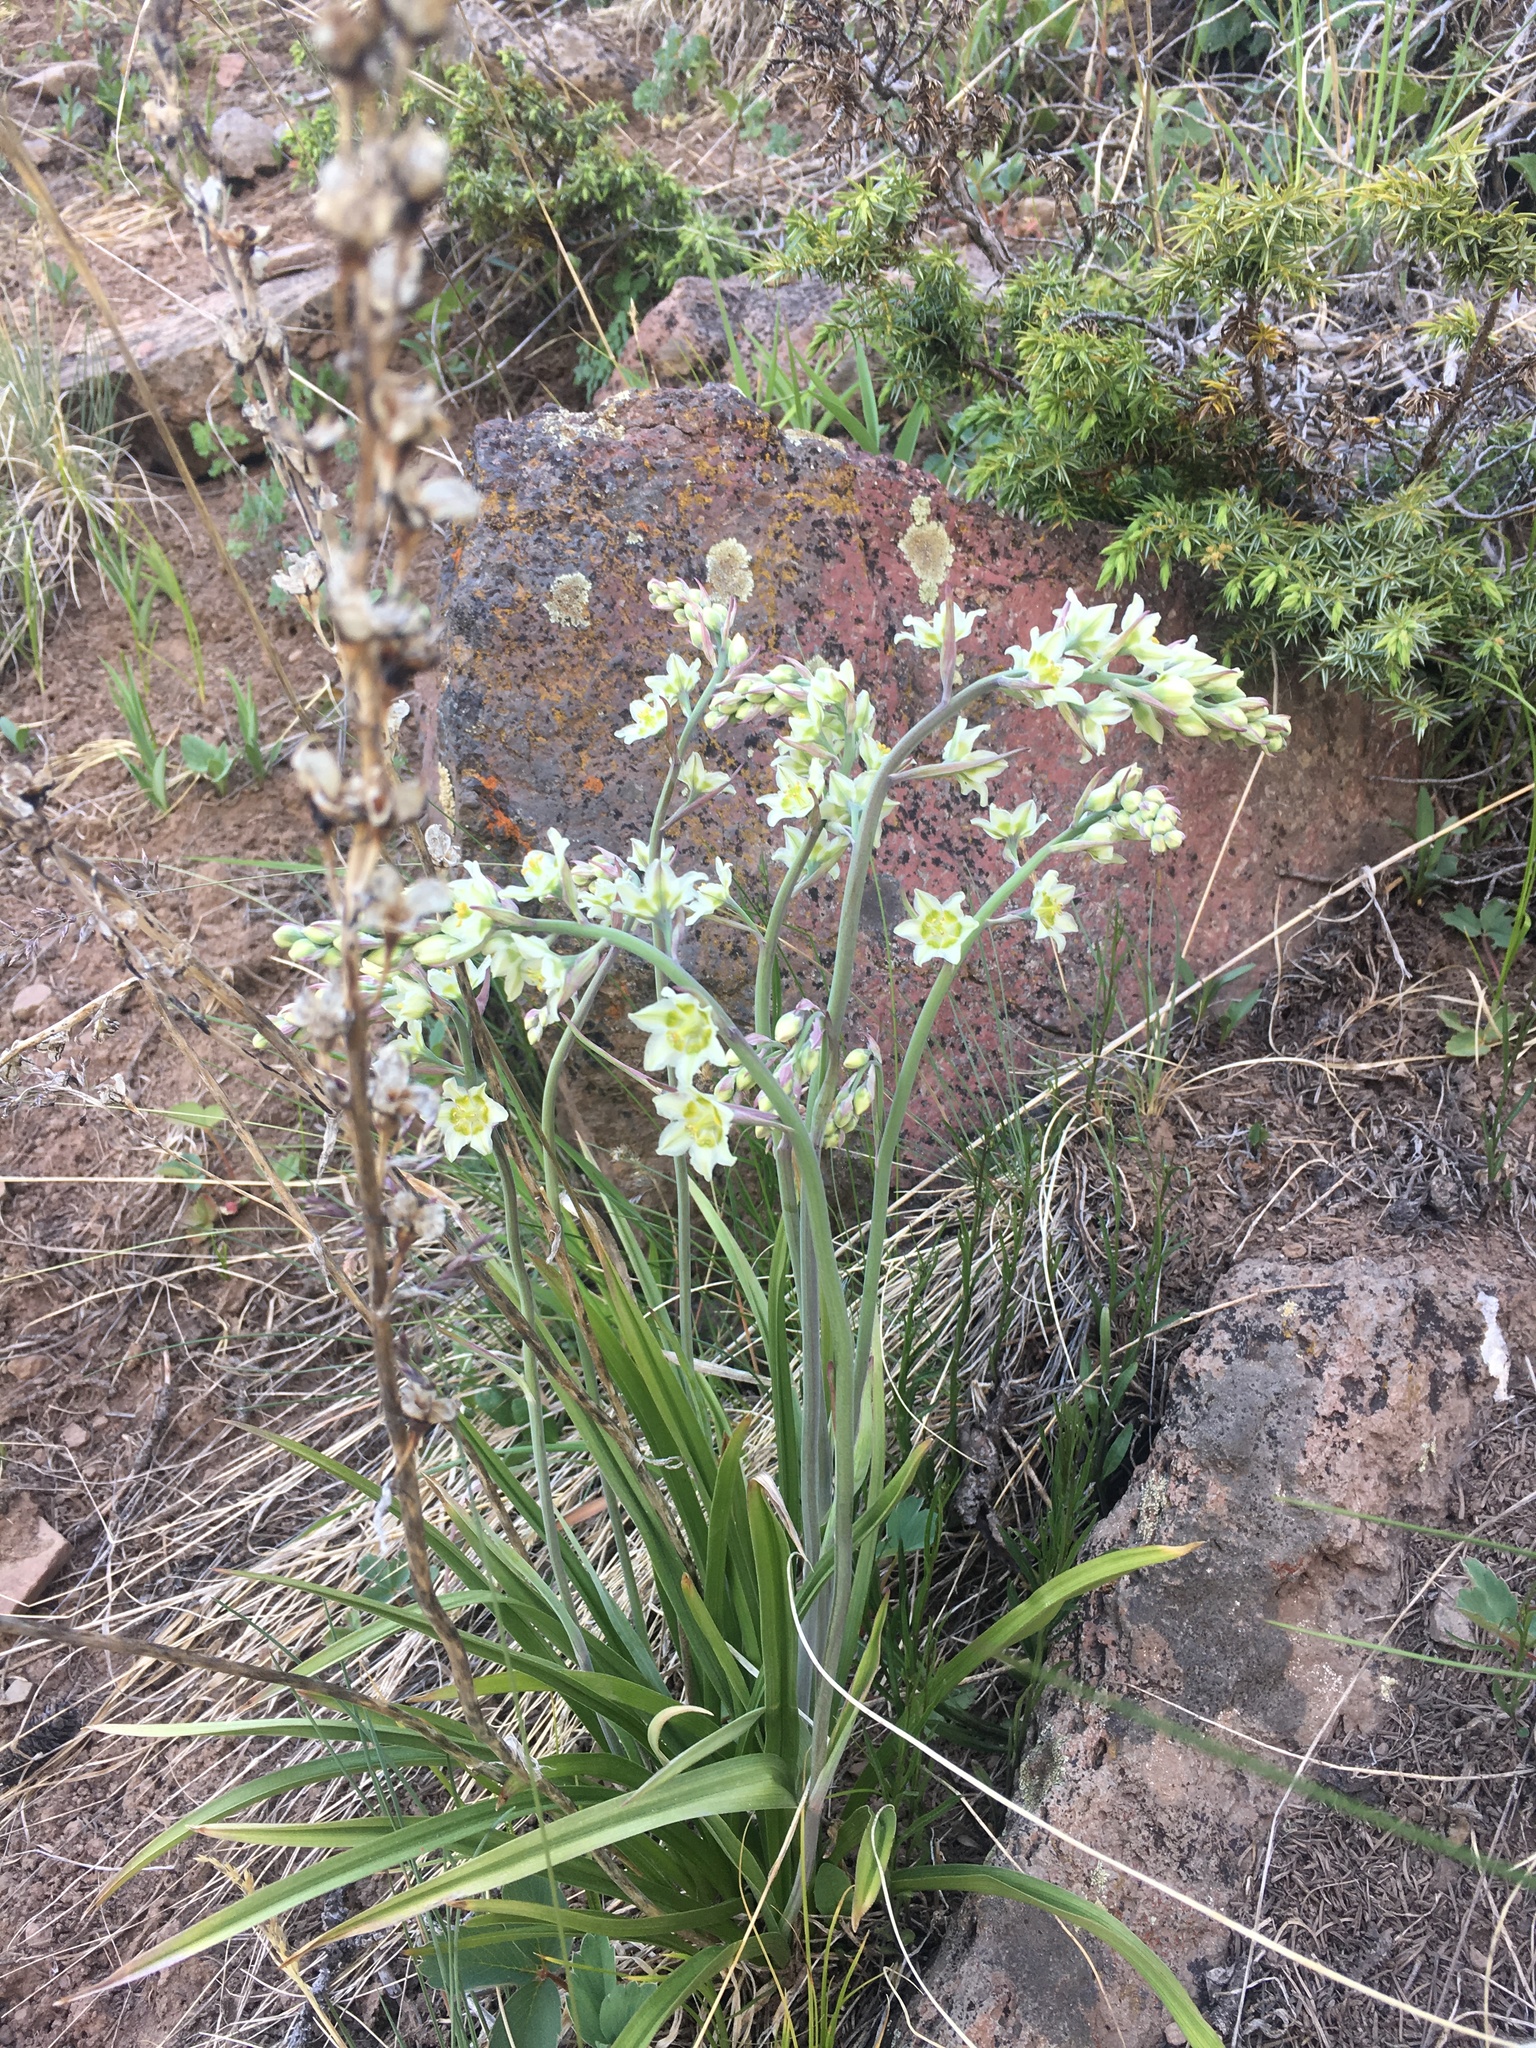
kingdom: Plantae
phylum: Tracheophyta
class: Liliopsida
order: Liliales
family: Melanthiaceae
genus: Anticlea
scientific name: Anticlea elegans
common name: Mountain death camas
